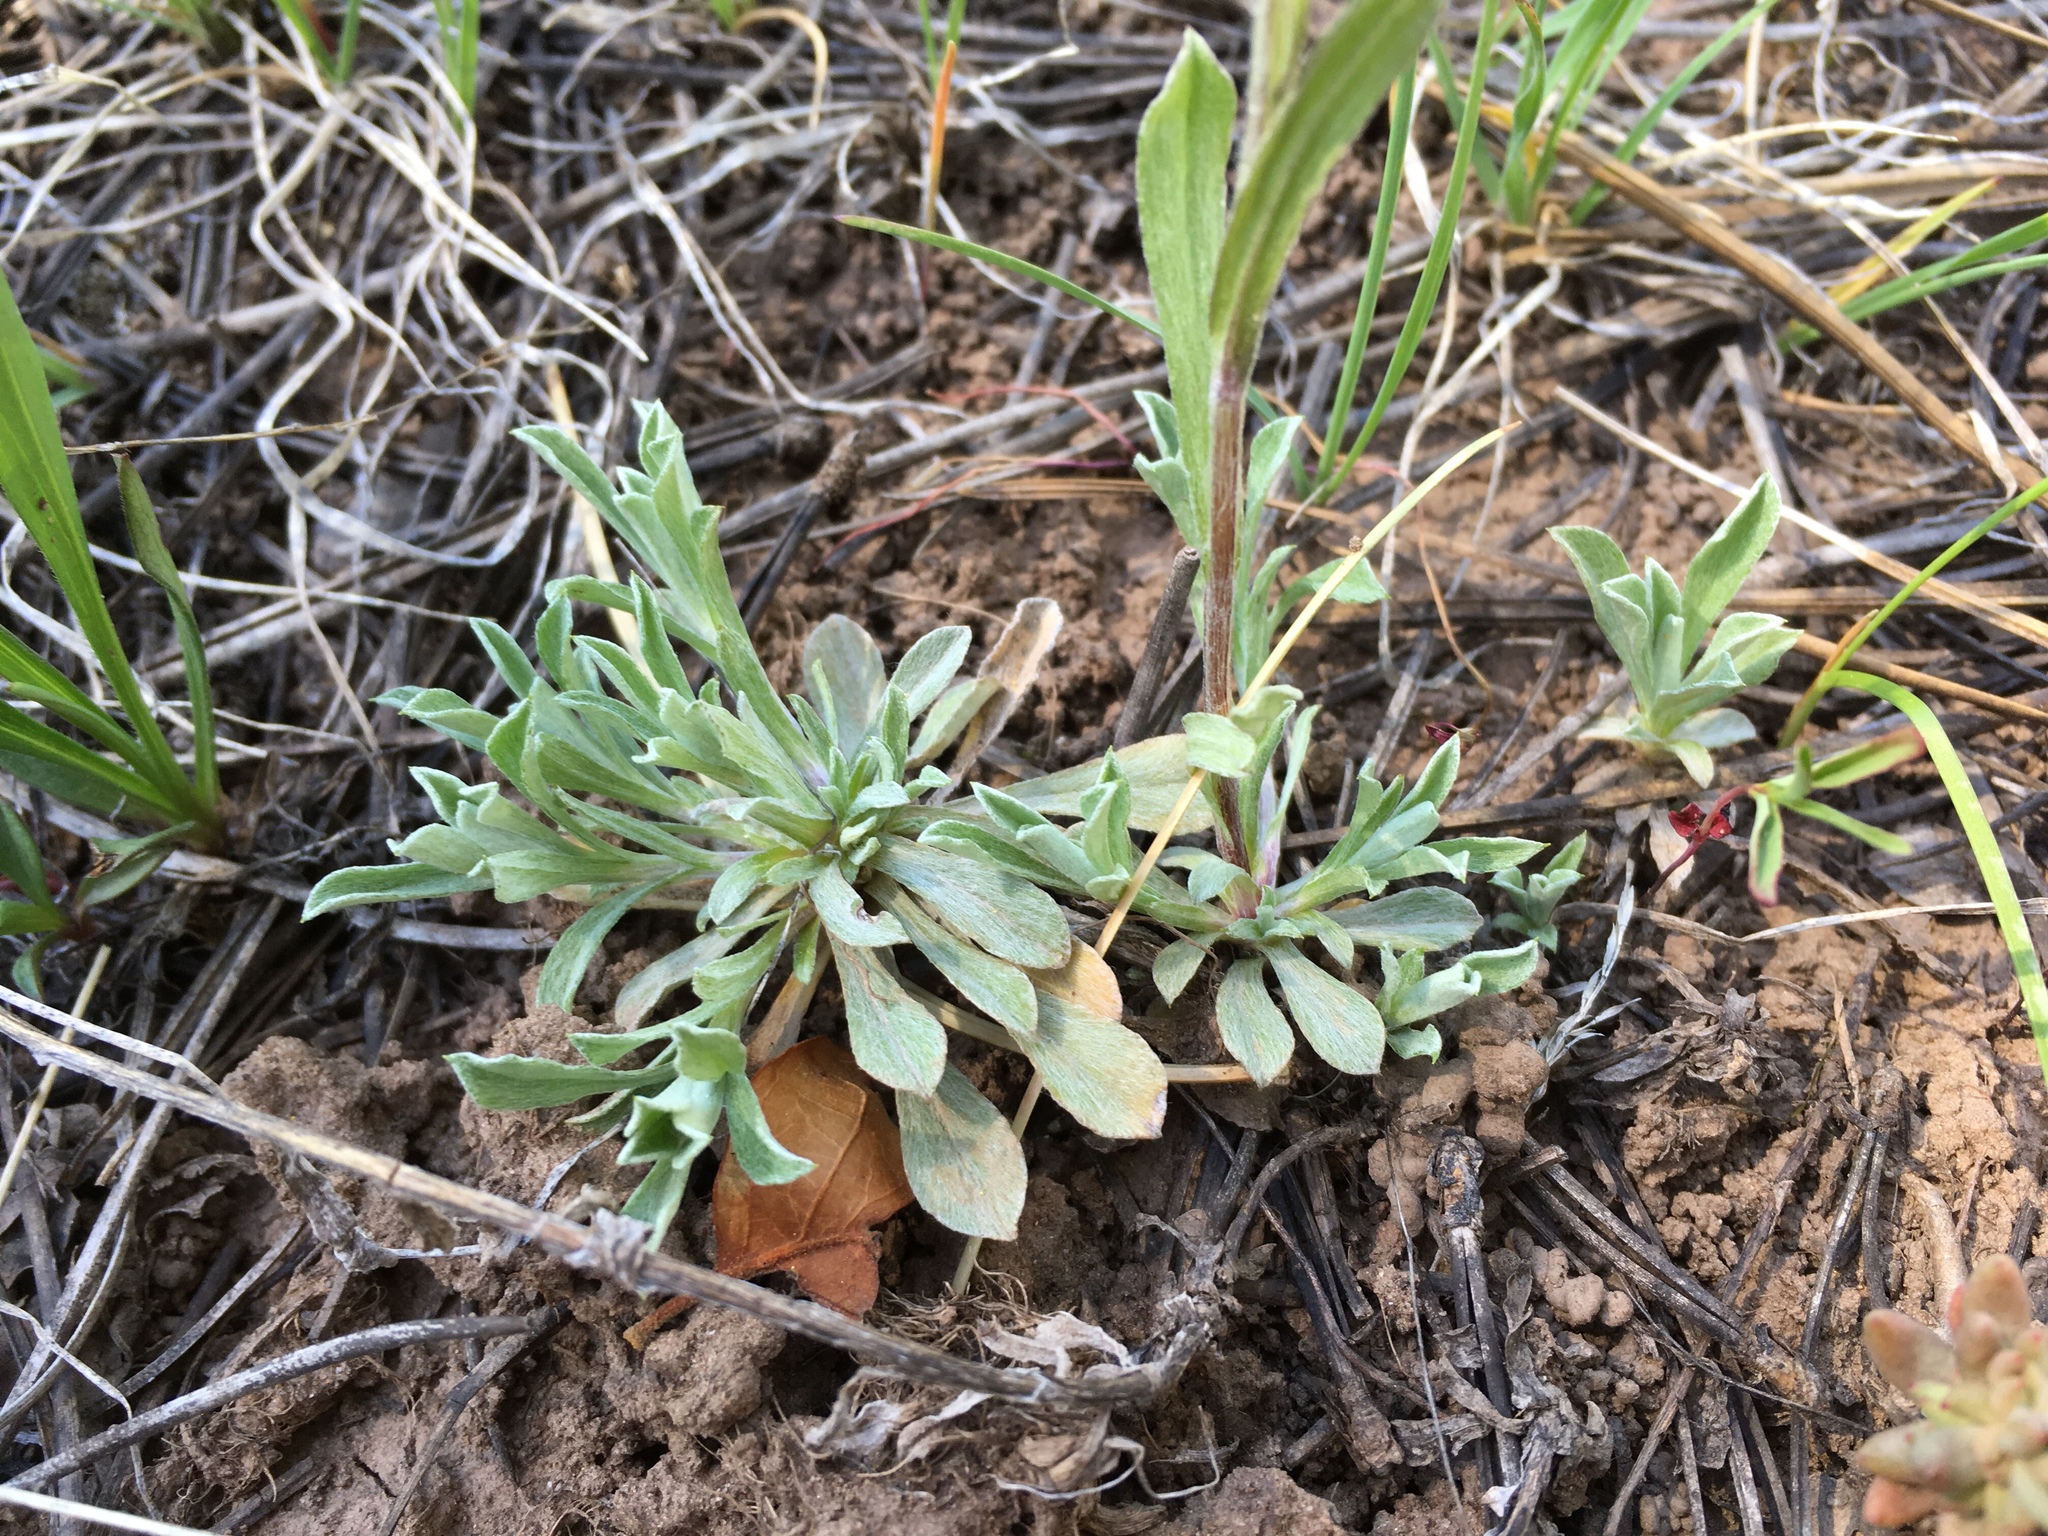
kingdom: Plantae
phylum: Tracheophyta
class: Magnoliopsida
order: Asterales
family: Asteraceae
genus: Antennaria
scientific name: Antennaria rosea
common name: Rosy pussytoes
